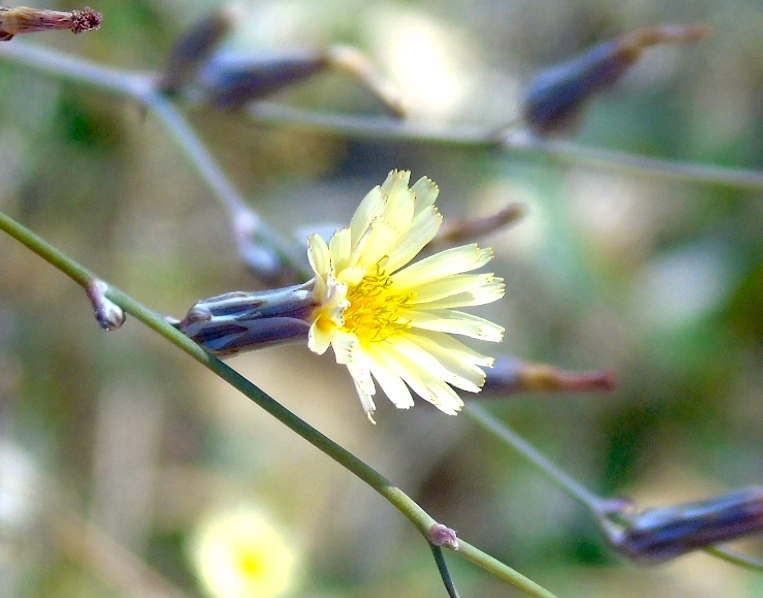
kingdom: Plantae
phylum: Tracheophyta
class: Magnoliopsida
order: Asterales
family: Asteraceae
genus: Launaea
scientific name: Launaea intybacea
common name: Achicoria azul
